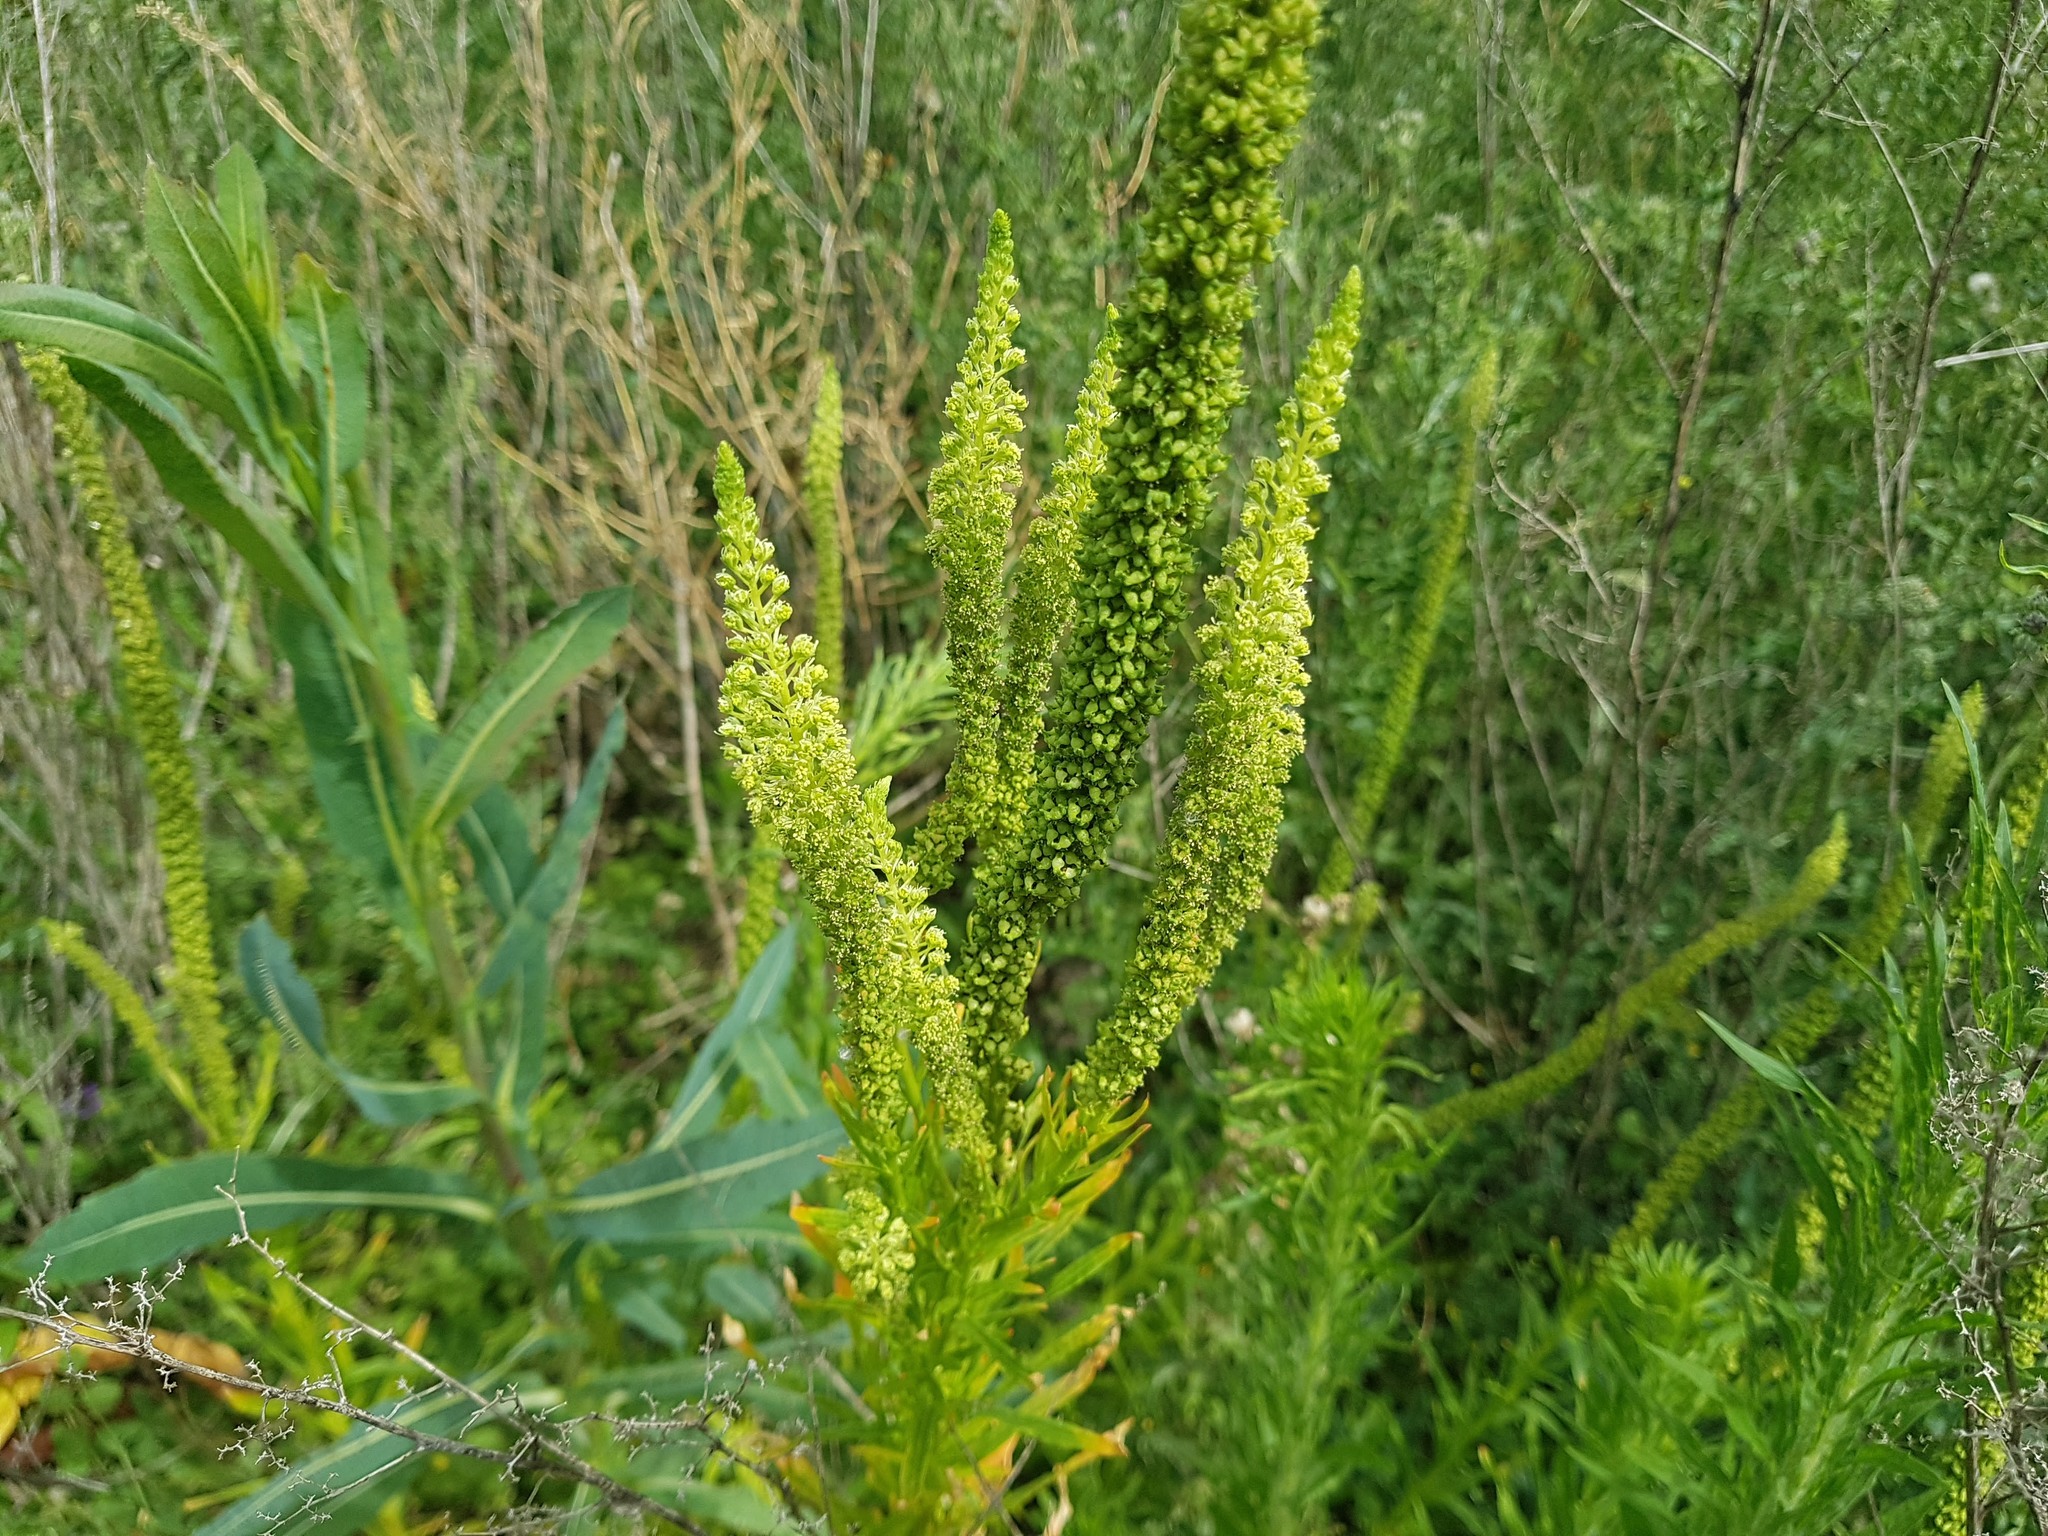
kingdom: Plantae
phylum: Tracheophyta
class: Magnoliopsida
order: Brassicales
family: Resedaceae
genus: Reseda
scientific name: Reseda luteola
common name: Weld
